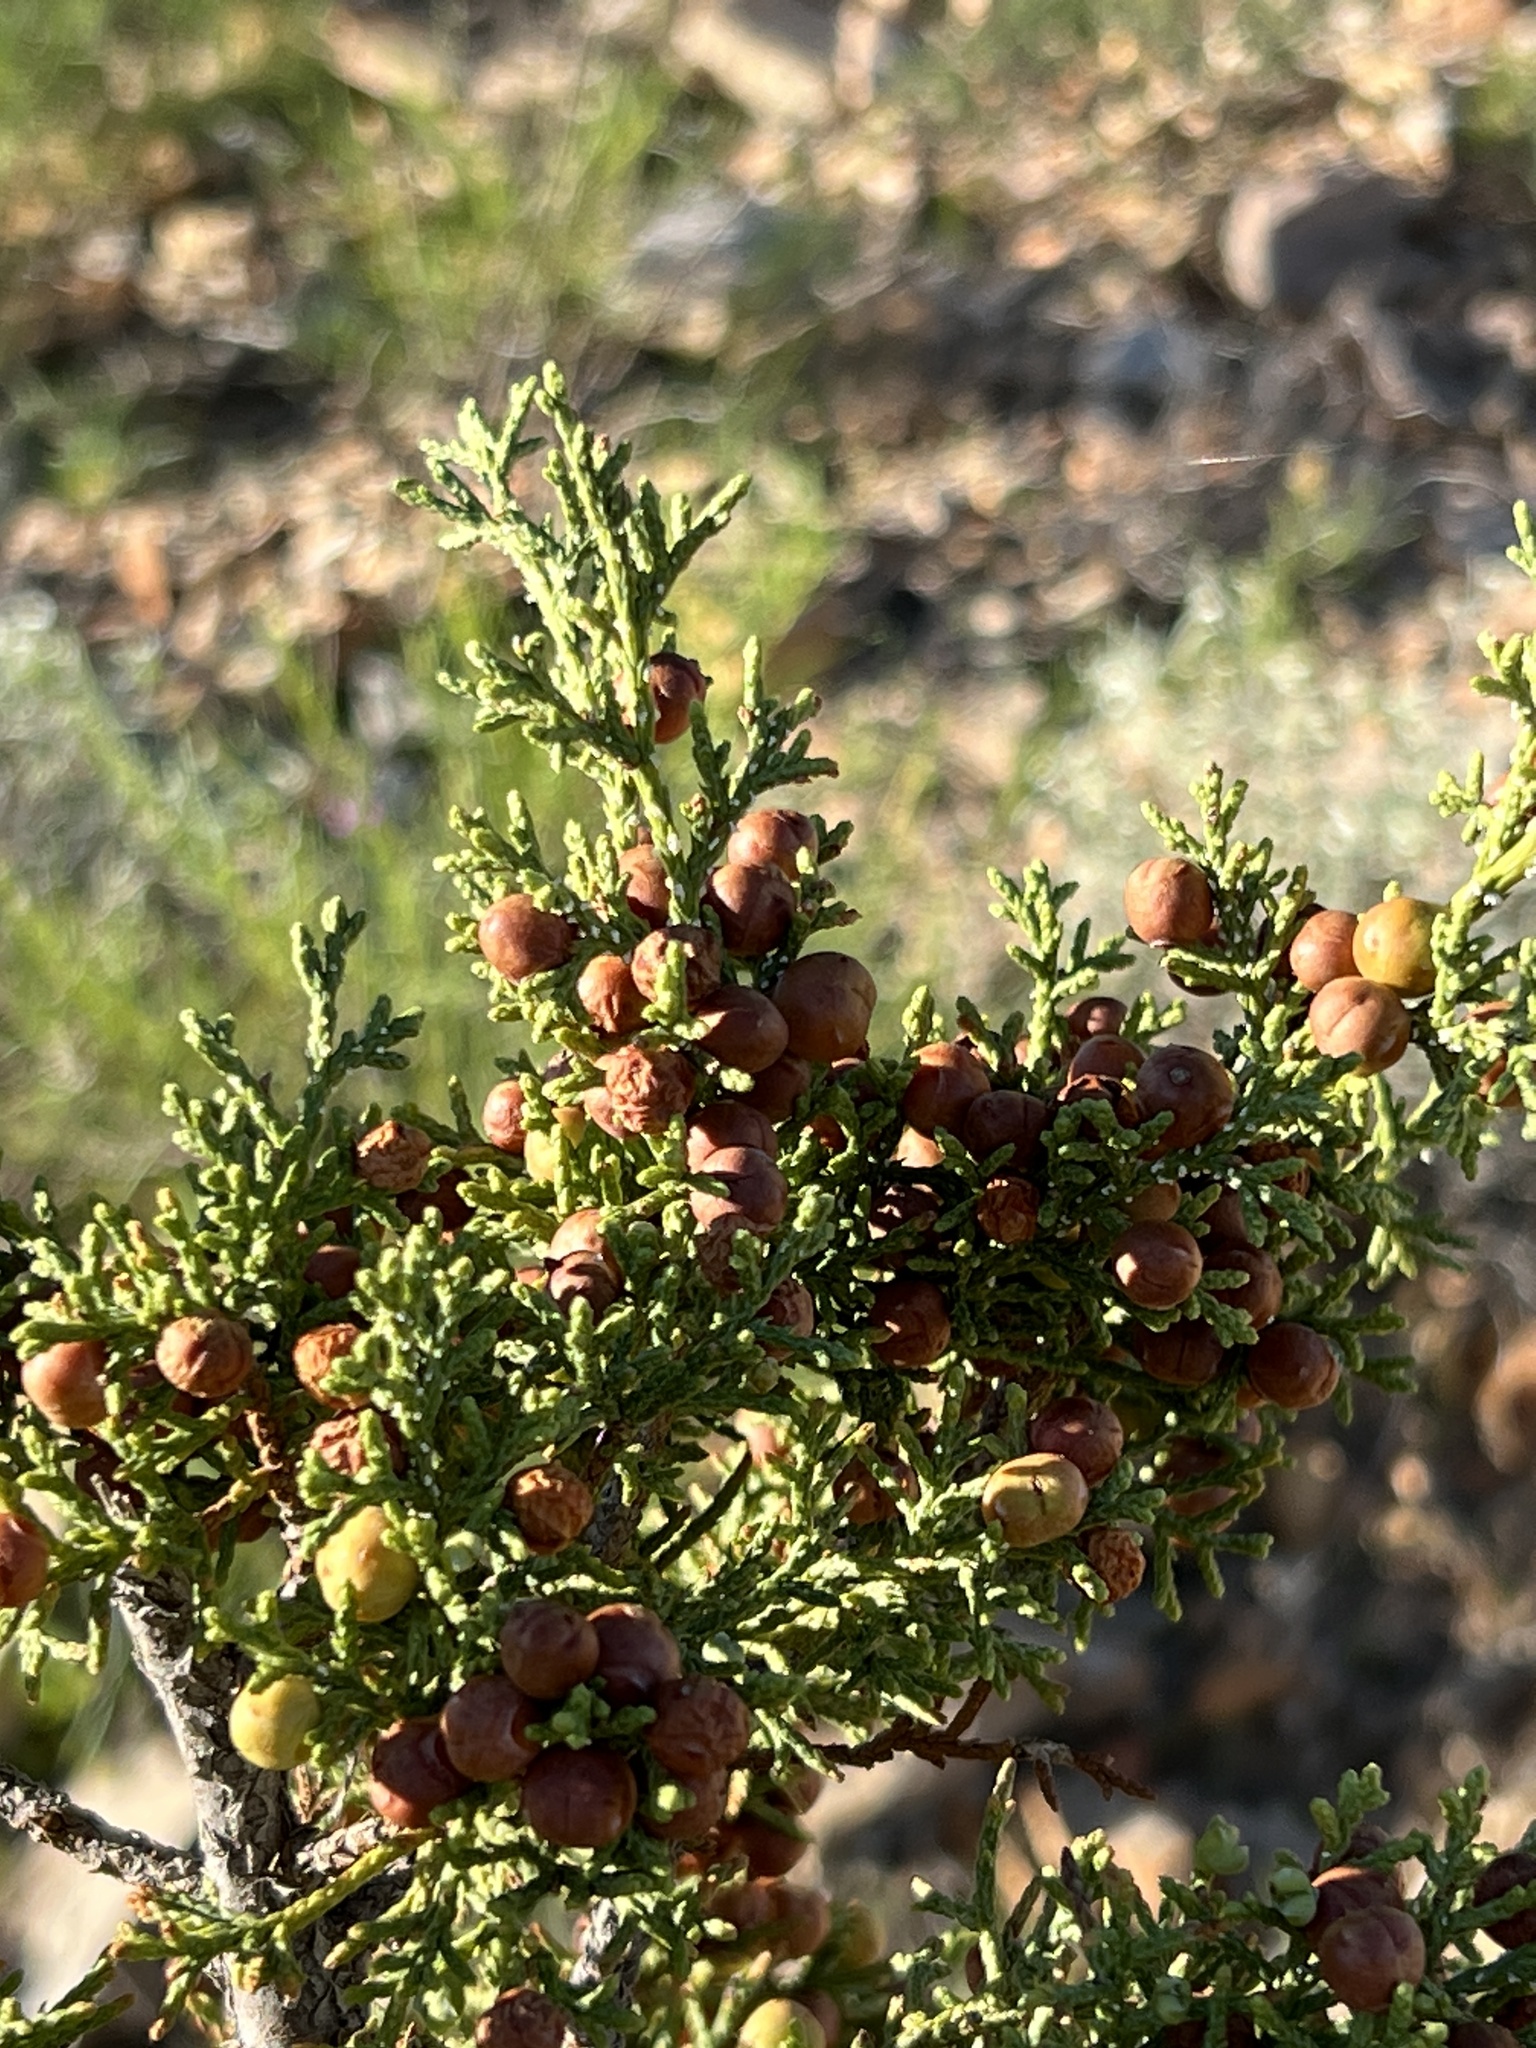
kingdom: Plantae
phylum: Tracheophyta
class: Pinopsida
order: Pinales
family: Cupressaceae
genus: Juniperus
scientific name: Juniperus pinchotii
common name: Pinchot juniper
